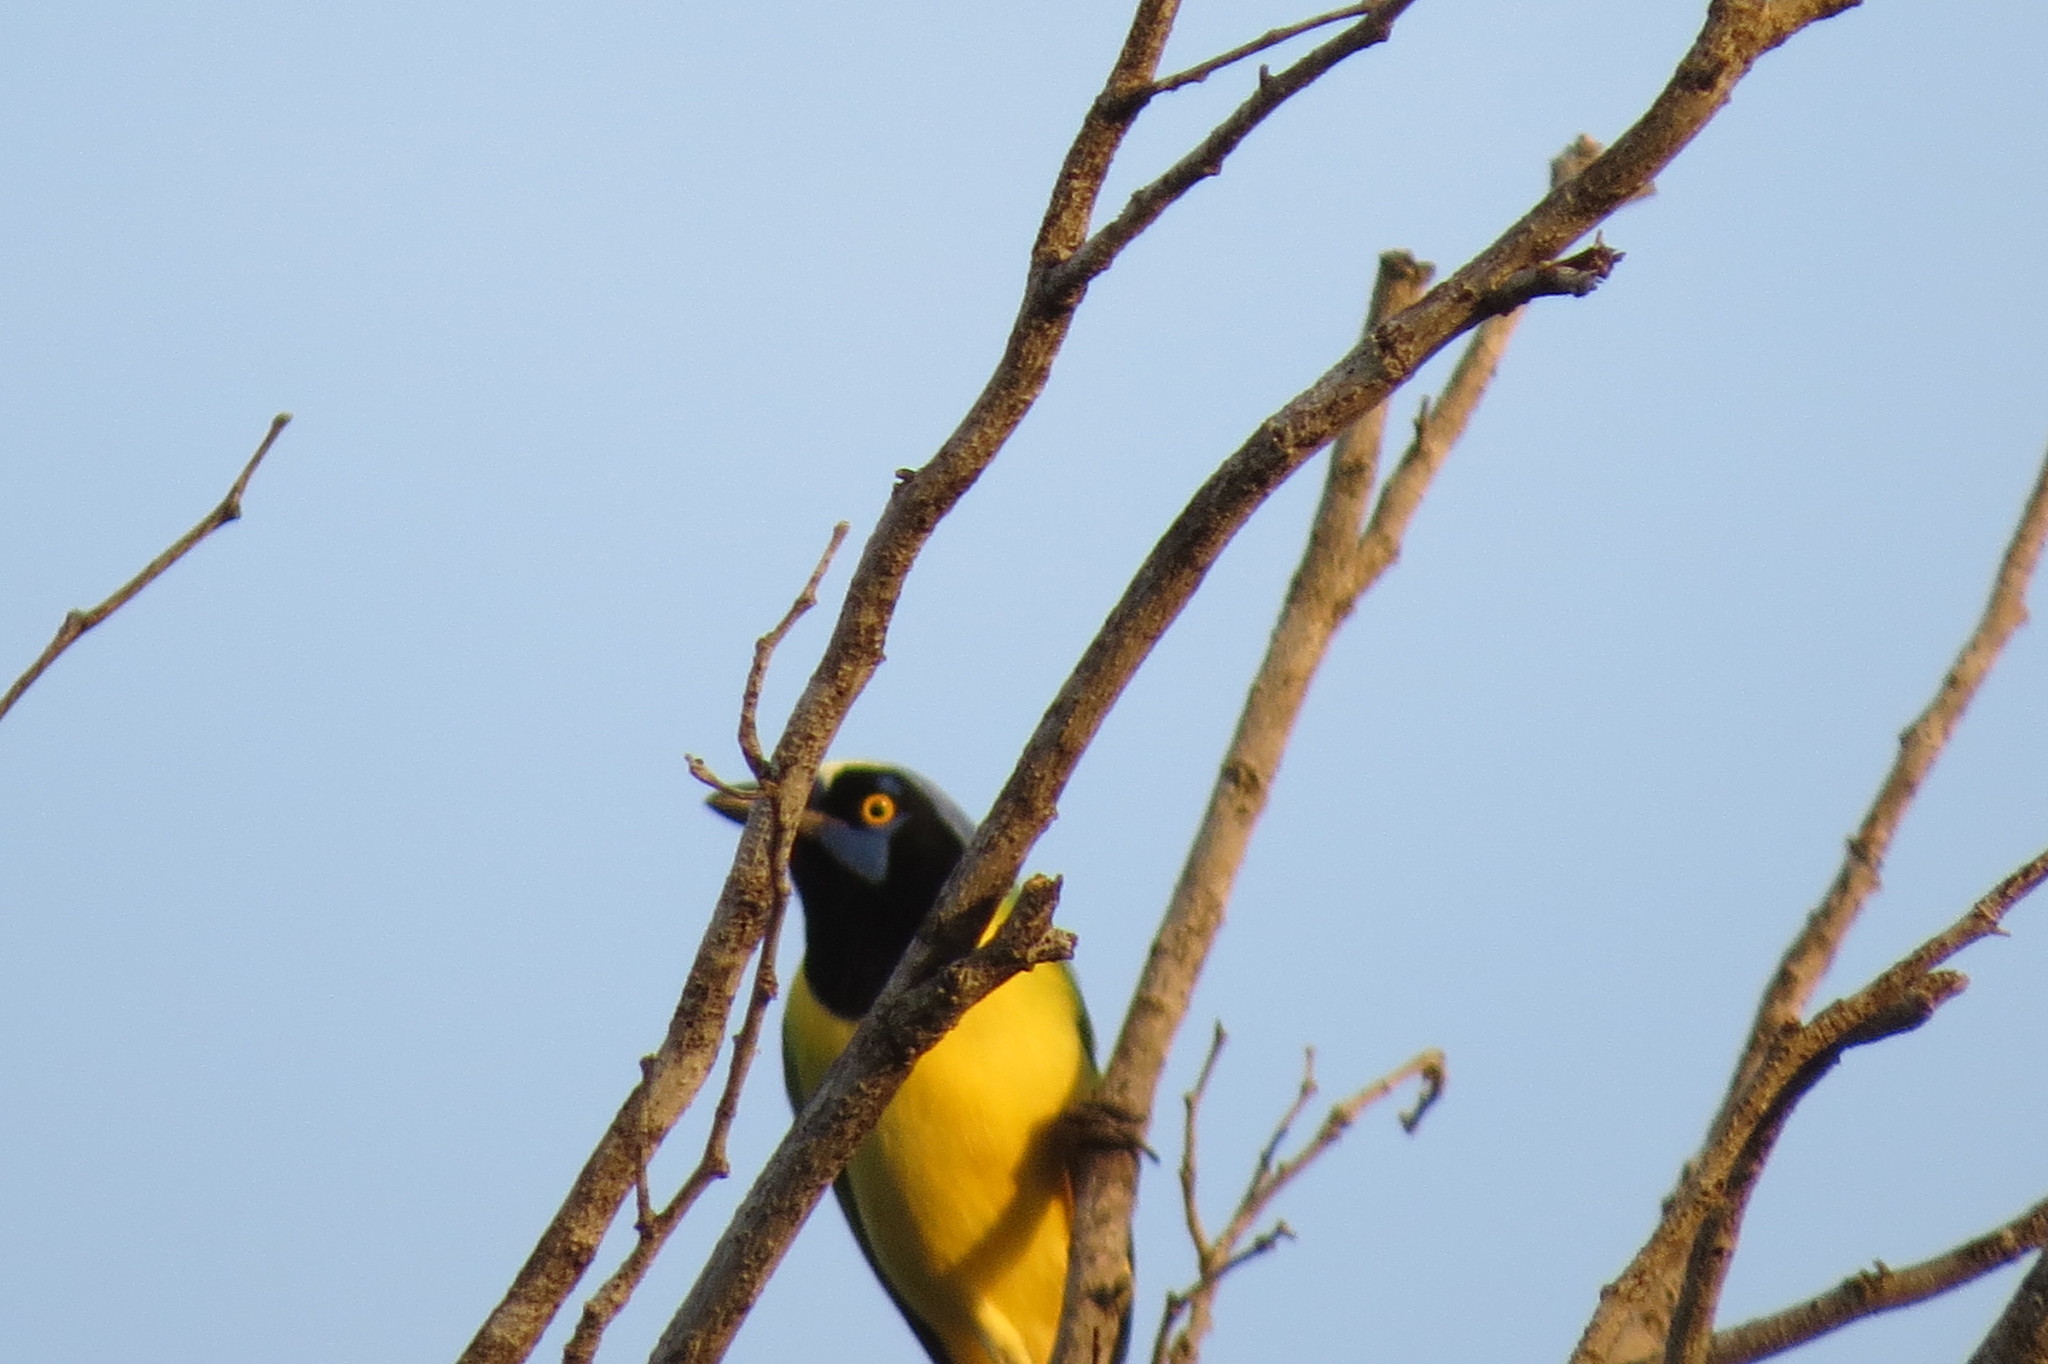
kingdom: Animalia
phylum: Chordata
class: Aves
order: Passeriformes
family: Corvidae
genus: Cyanocorax
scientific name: Cyanocorax yncas
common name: Green jay
